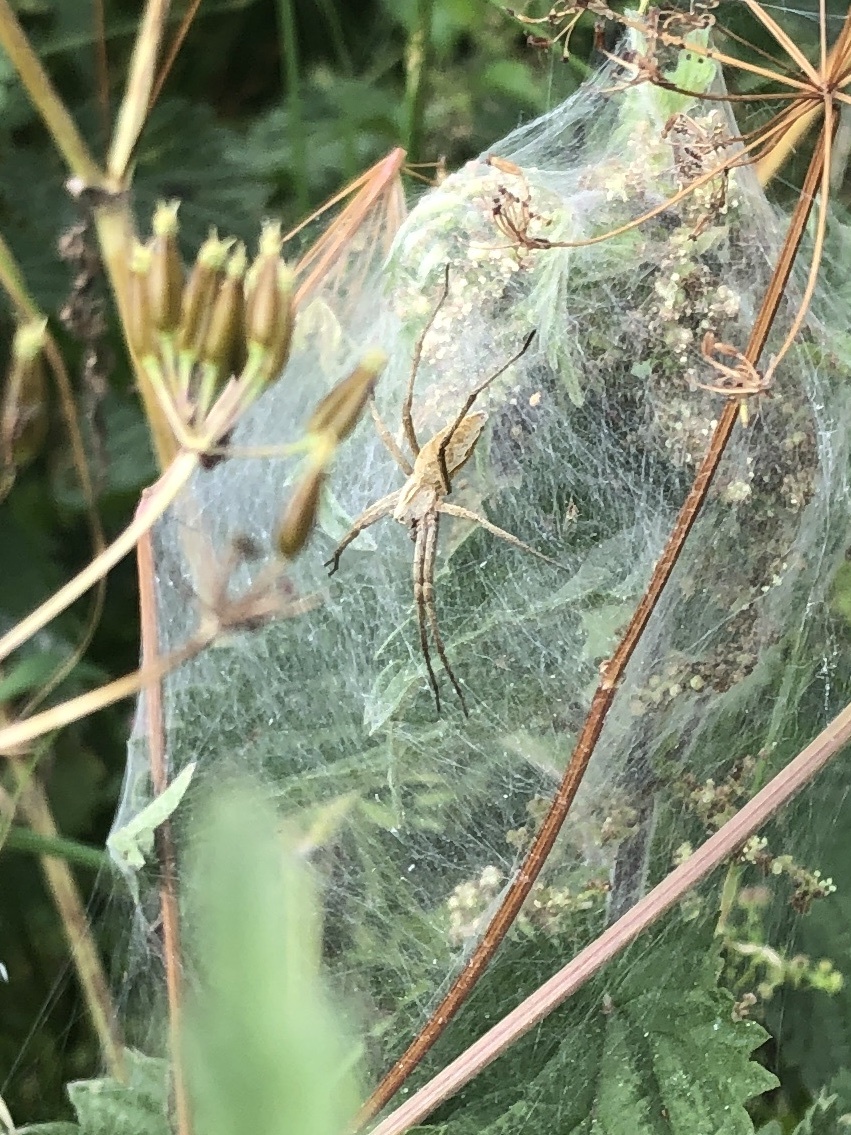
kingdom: Animalia
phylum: Arthropoda
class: Arachnida
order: Araneae
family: Pisauridae
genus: Pisaura
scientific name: Pisaura mirabilis
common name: Tent spider
